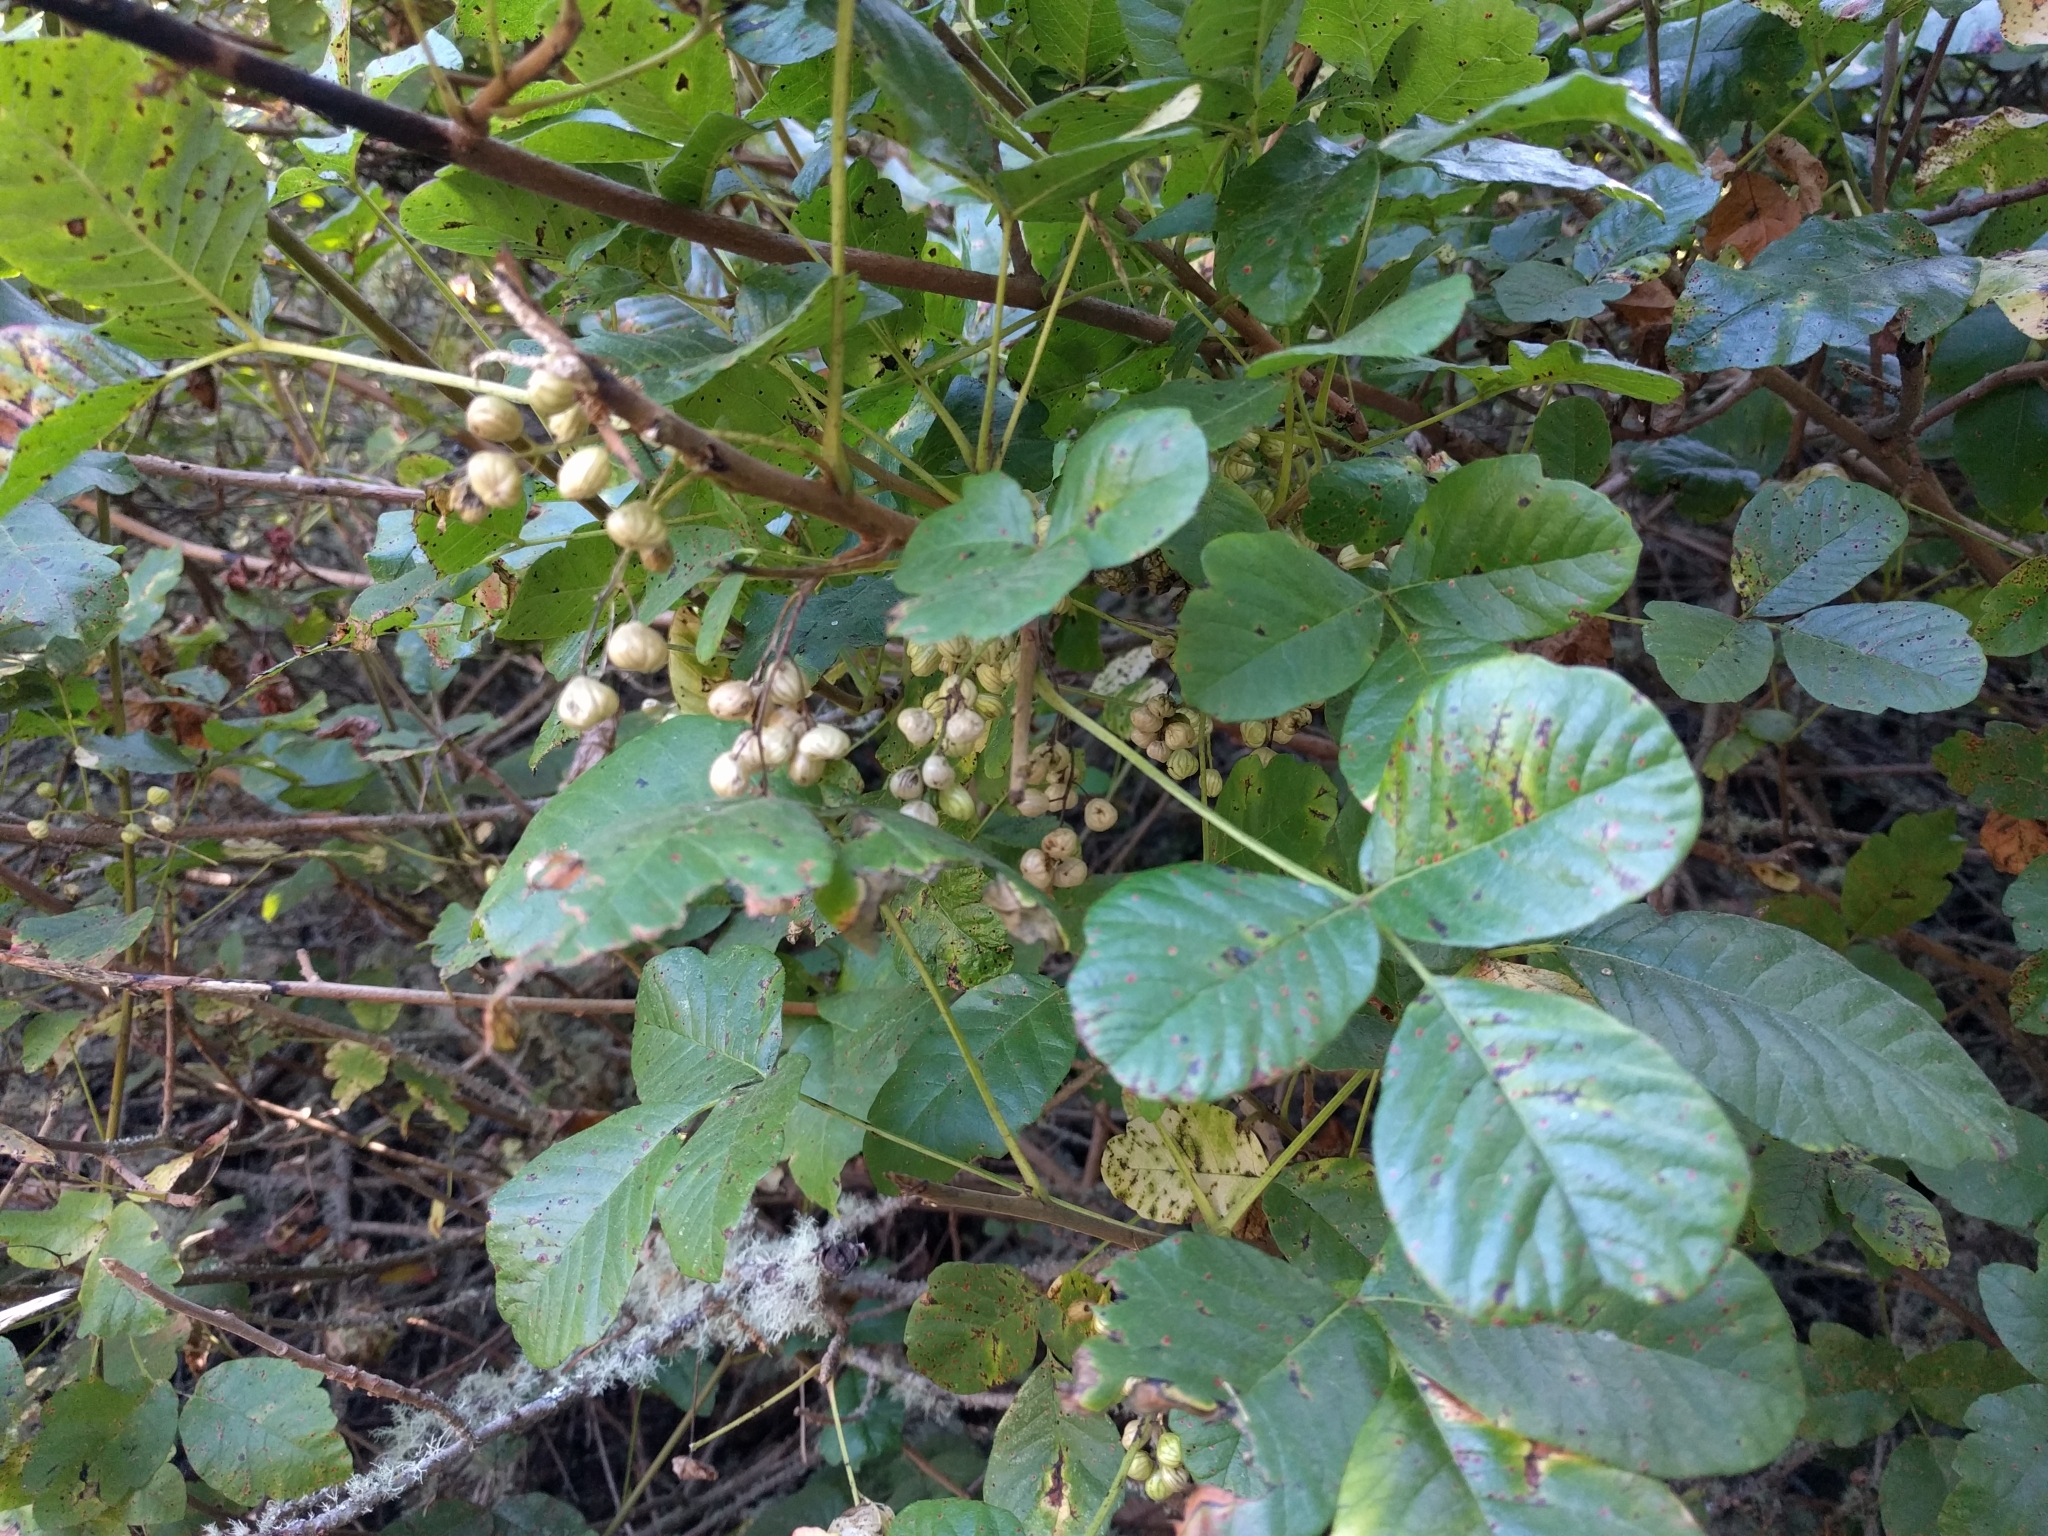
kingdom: Plantae
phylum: Tracheophyta
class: Magnoliopsida
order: Sapindales
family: Anacardiaceae
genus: Toxicodendron
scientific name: Toxicodendron diversilobum
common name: Pacific poison-oak
